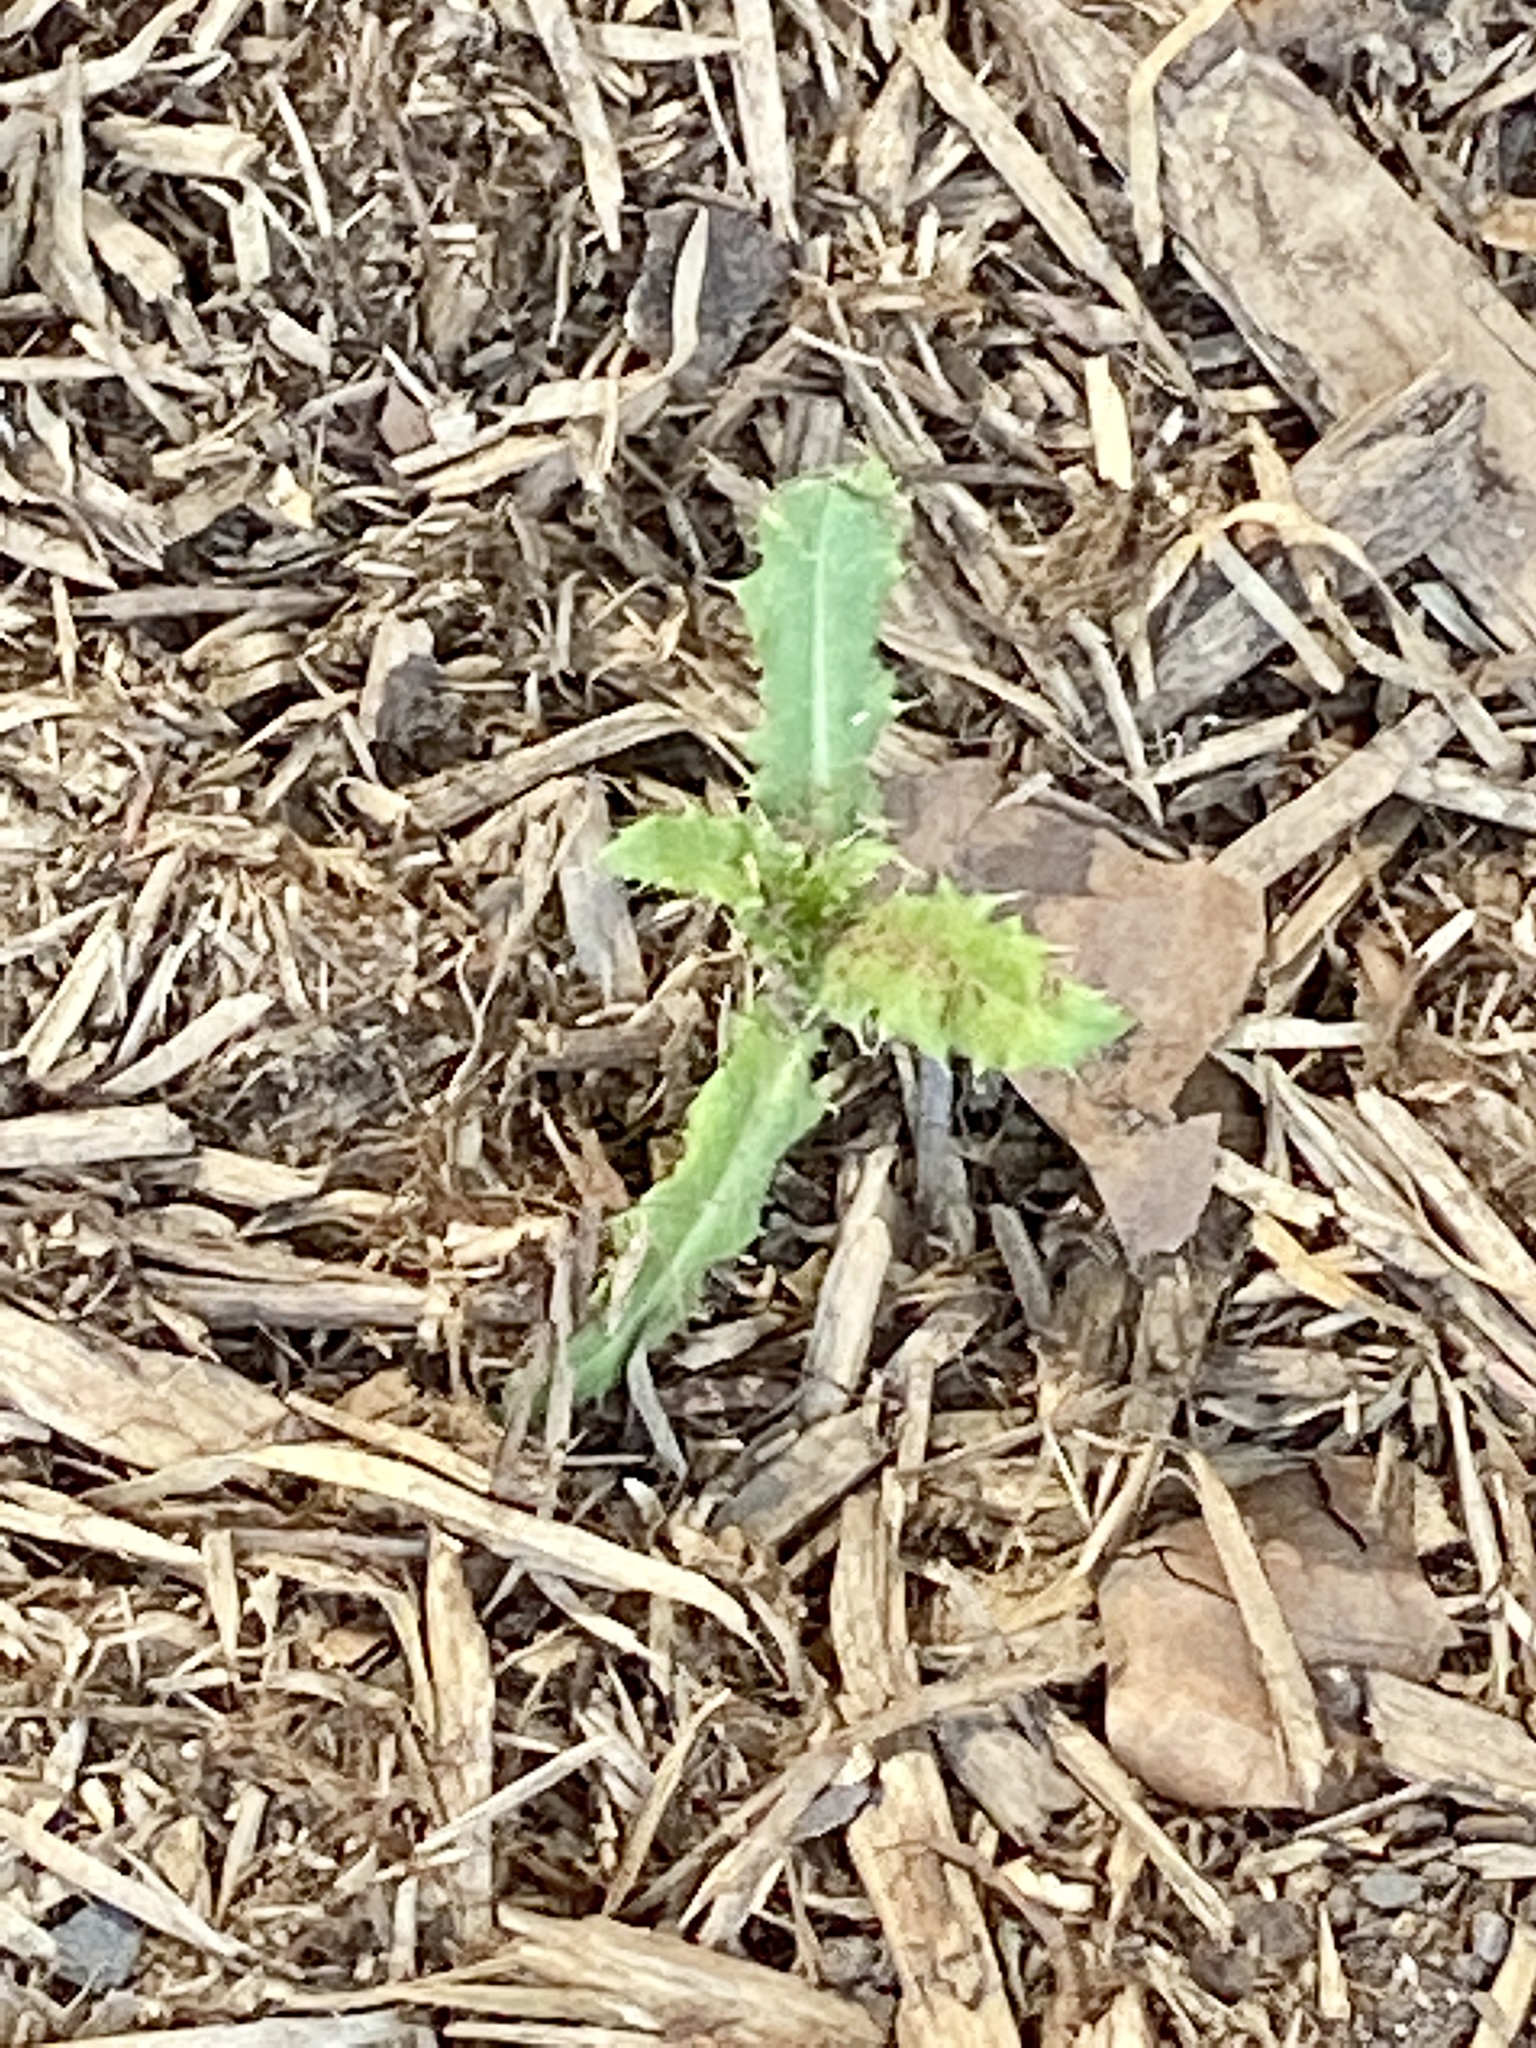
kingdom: Plantae
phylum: Tracheophyta
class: Magnoliopsida
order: Asterales
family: Asteraceae
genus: Cirsium
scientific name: Cirsium arvense
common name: Creeping thistle
